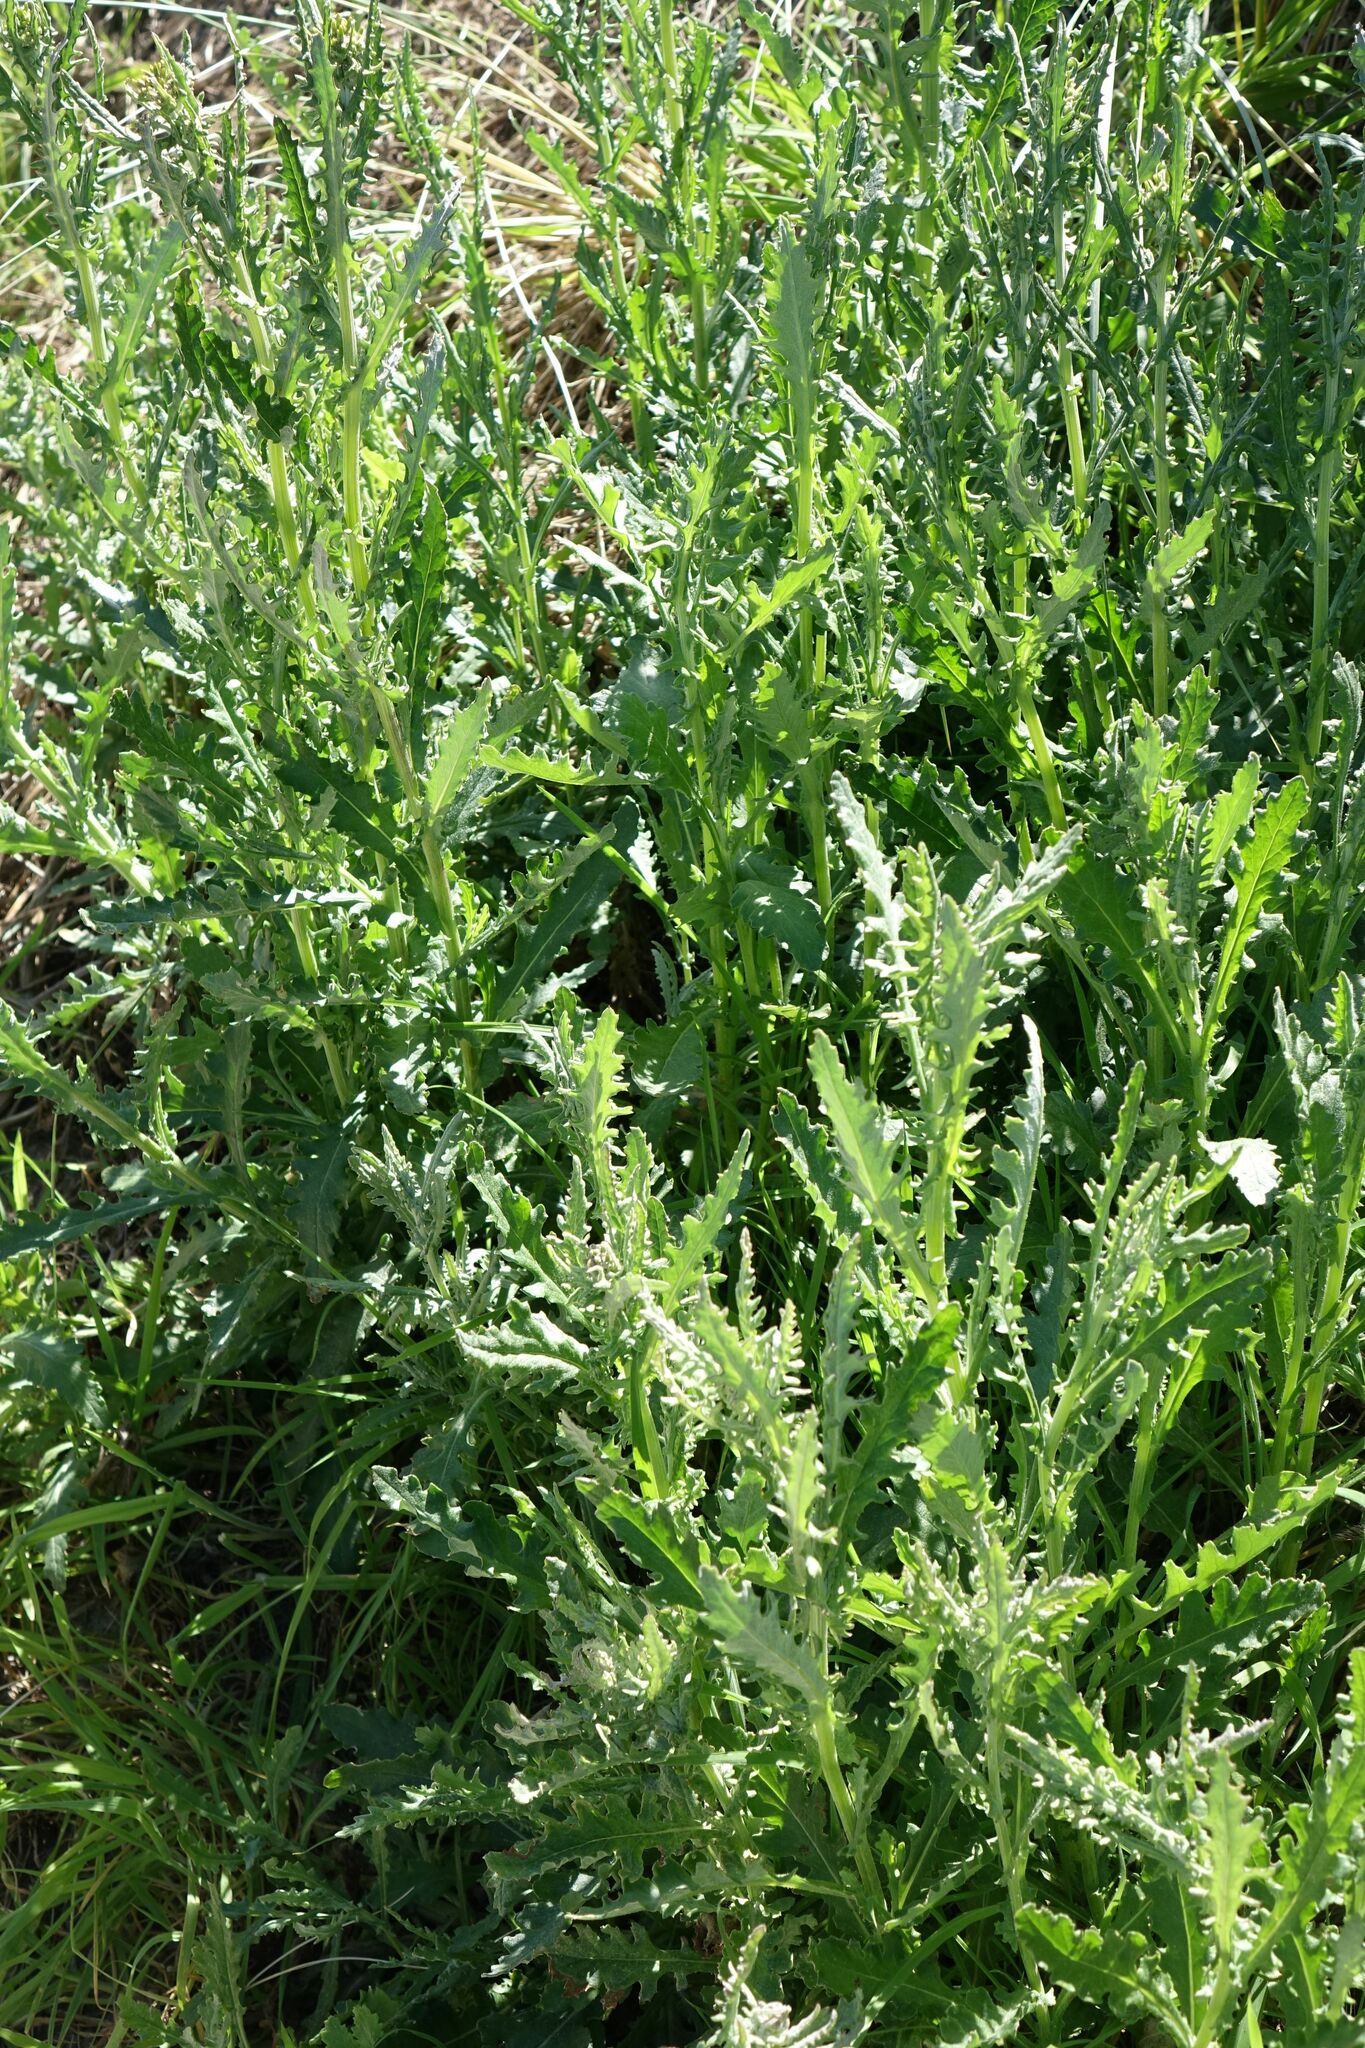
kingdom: Plantae
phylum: Tracheophyta
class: Magnoliopsida
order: Asterales
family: Asteraceae
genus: Senecio
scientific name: Senecio glomeratus
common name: Cutleaf burnweed
